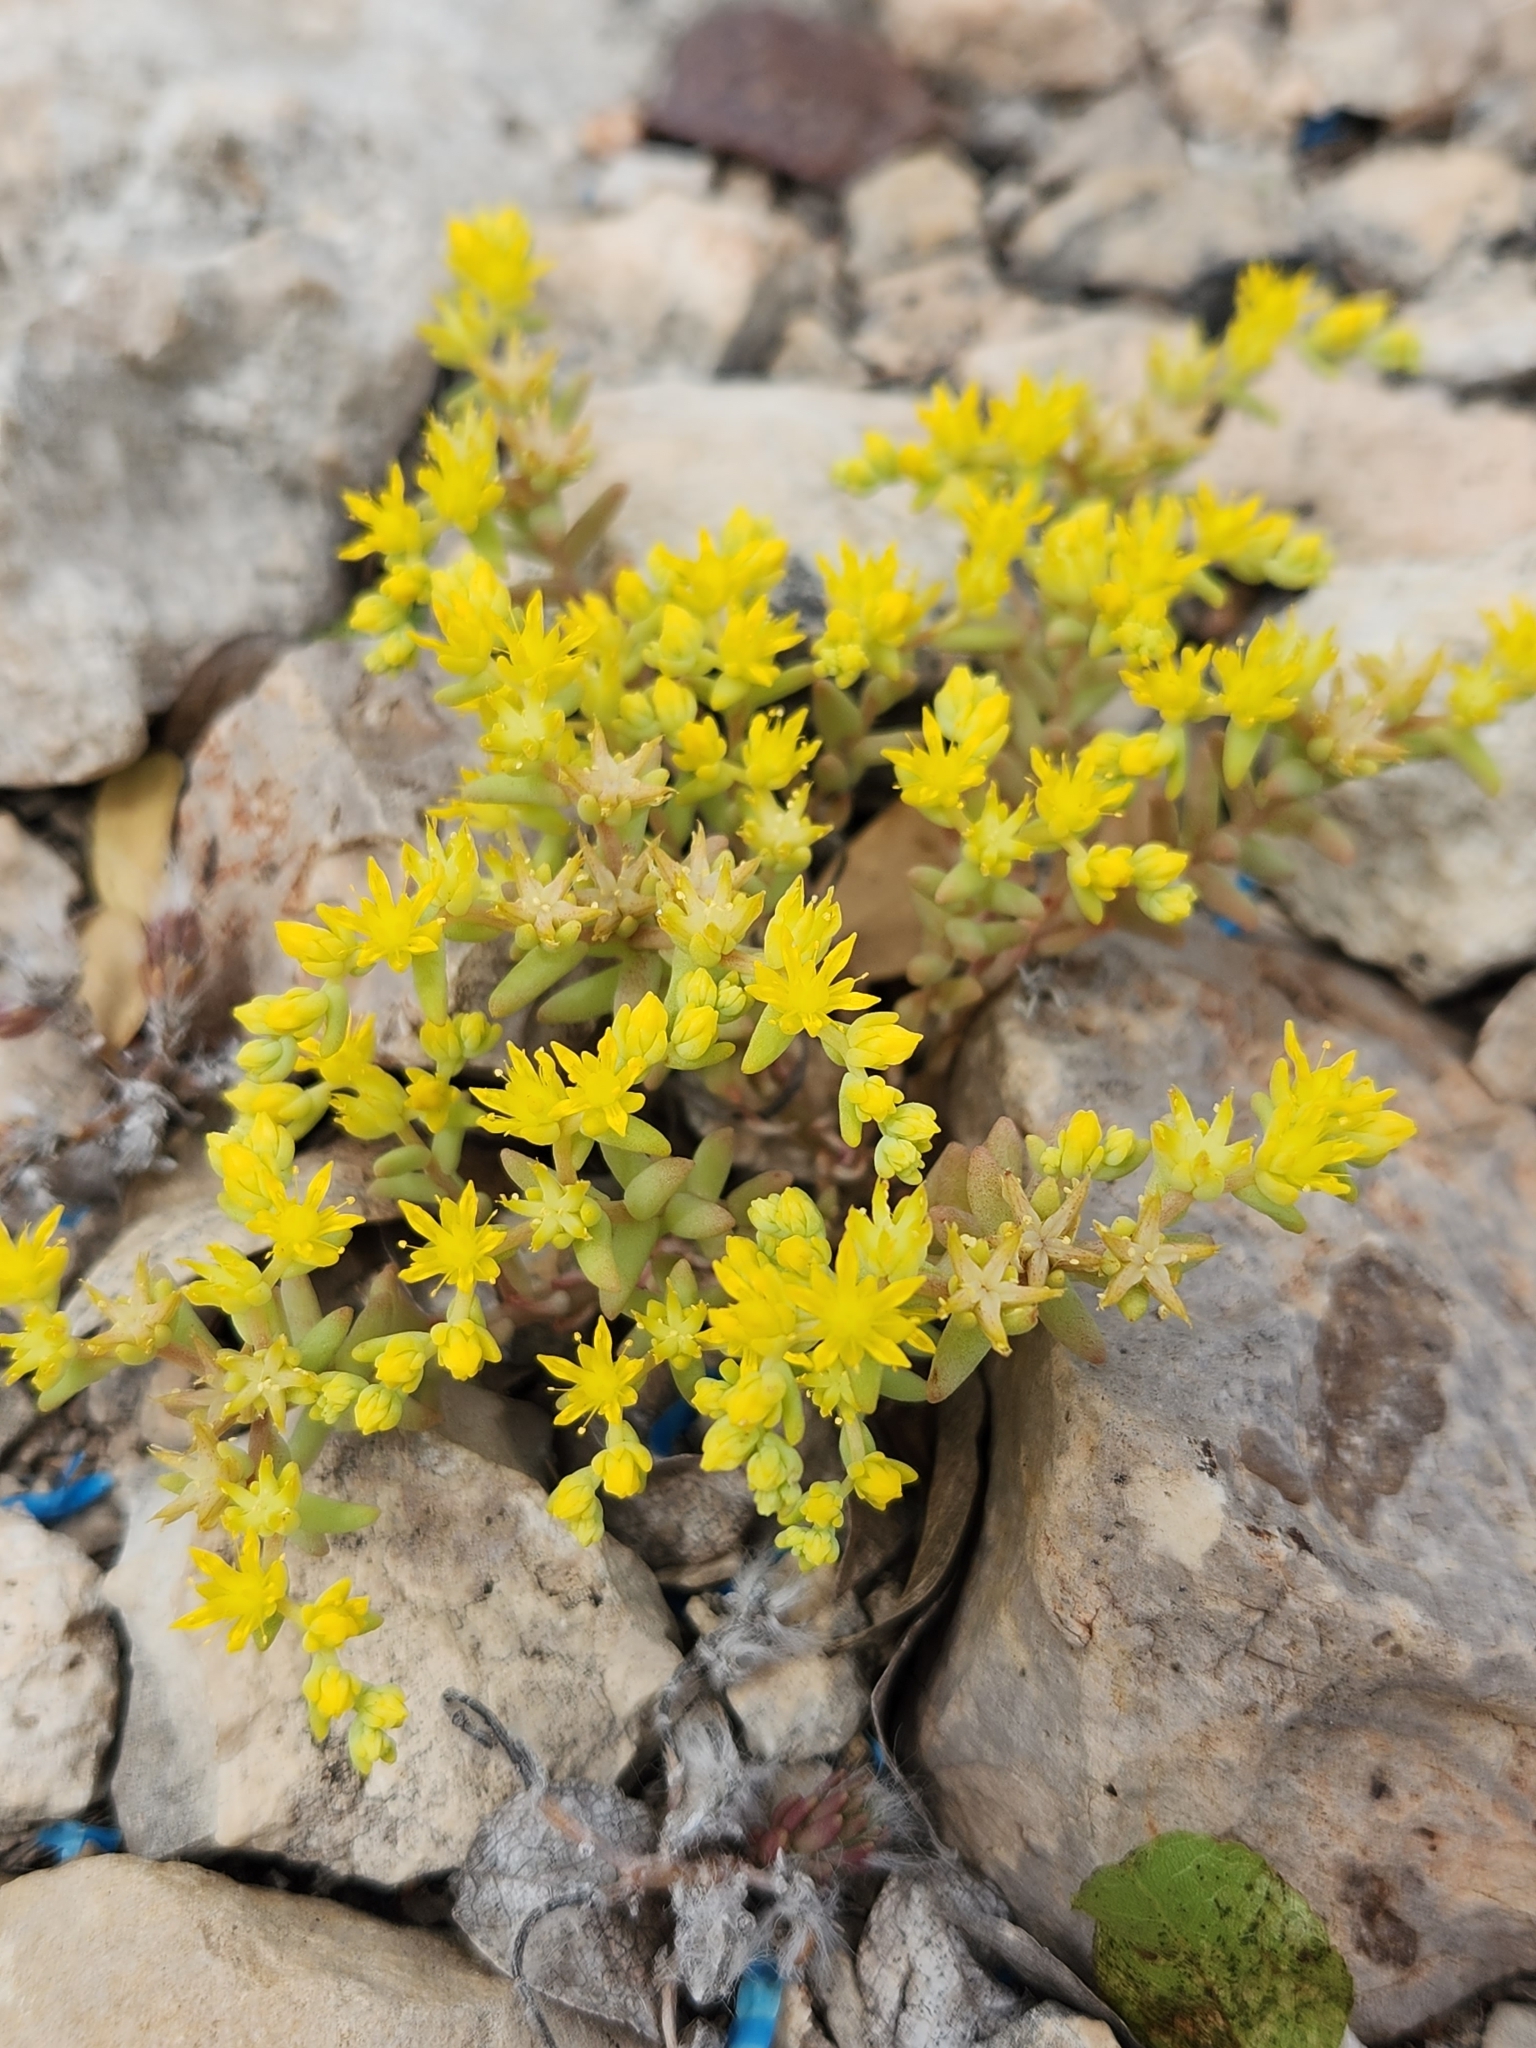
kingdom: Plantae
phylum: Tracheophyta
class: Magnoliopsida
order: Saxifragales
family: Crassulaceae
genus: Sedum
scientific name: Sedum nuttallii
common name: Yellow stonecrop
